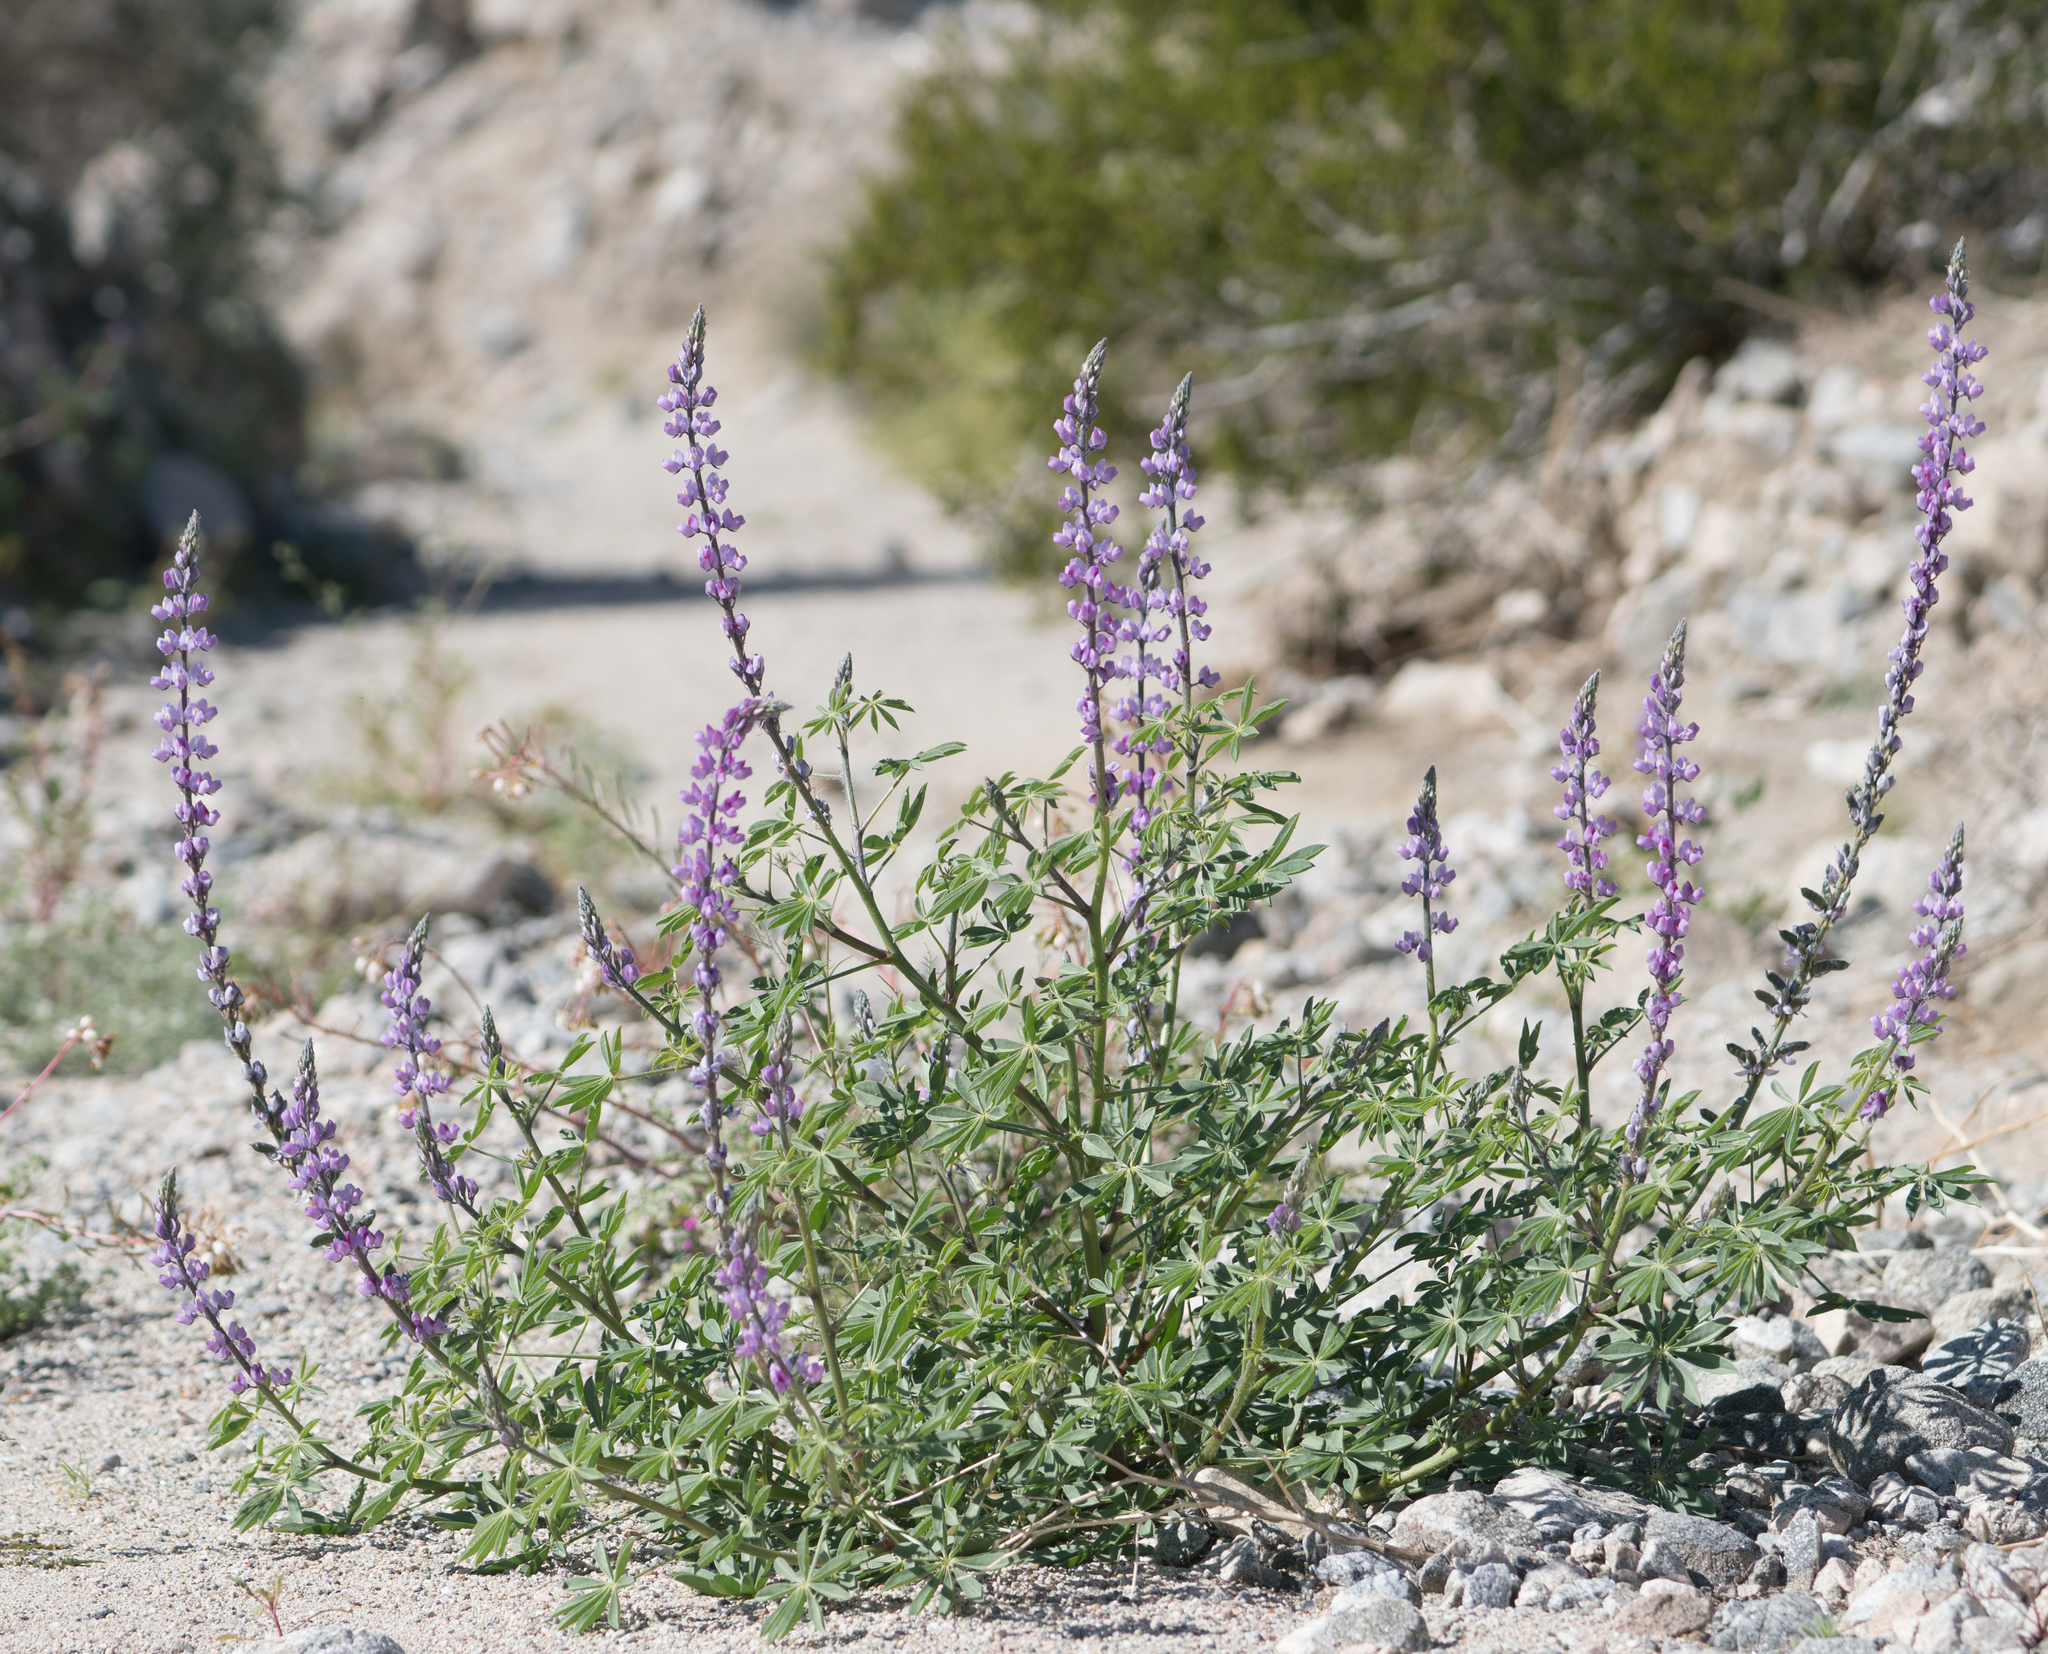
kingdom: Plantae
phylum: Tracheophyta
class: Magnoliopsida
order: Fabales
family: Fabaceae
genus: Lupinus
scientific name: Lupinus arizonicus
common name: Arizona lupine
